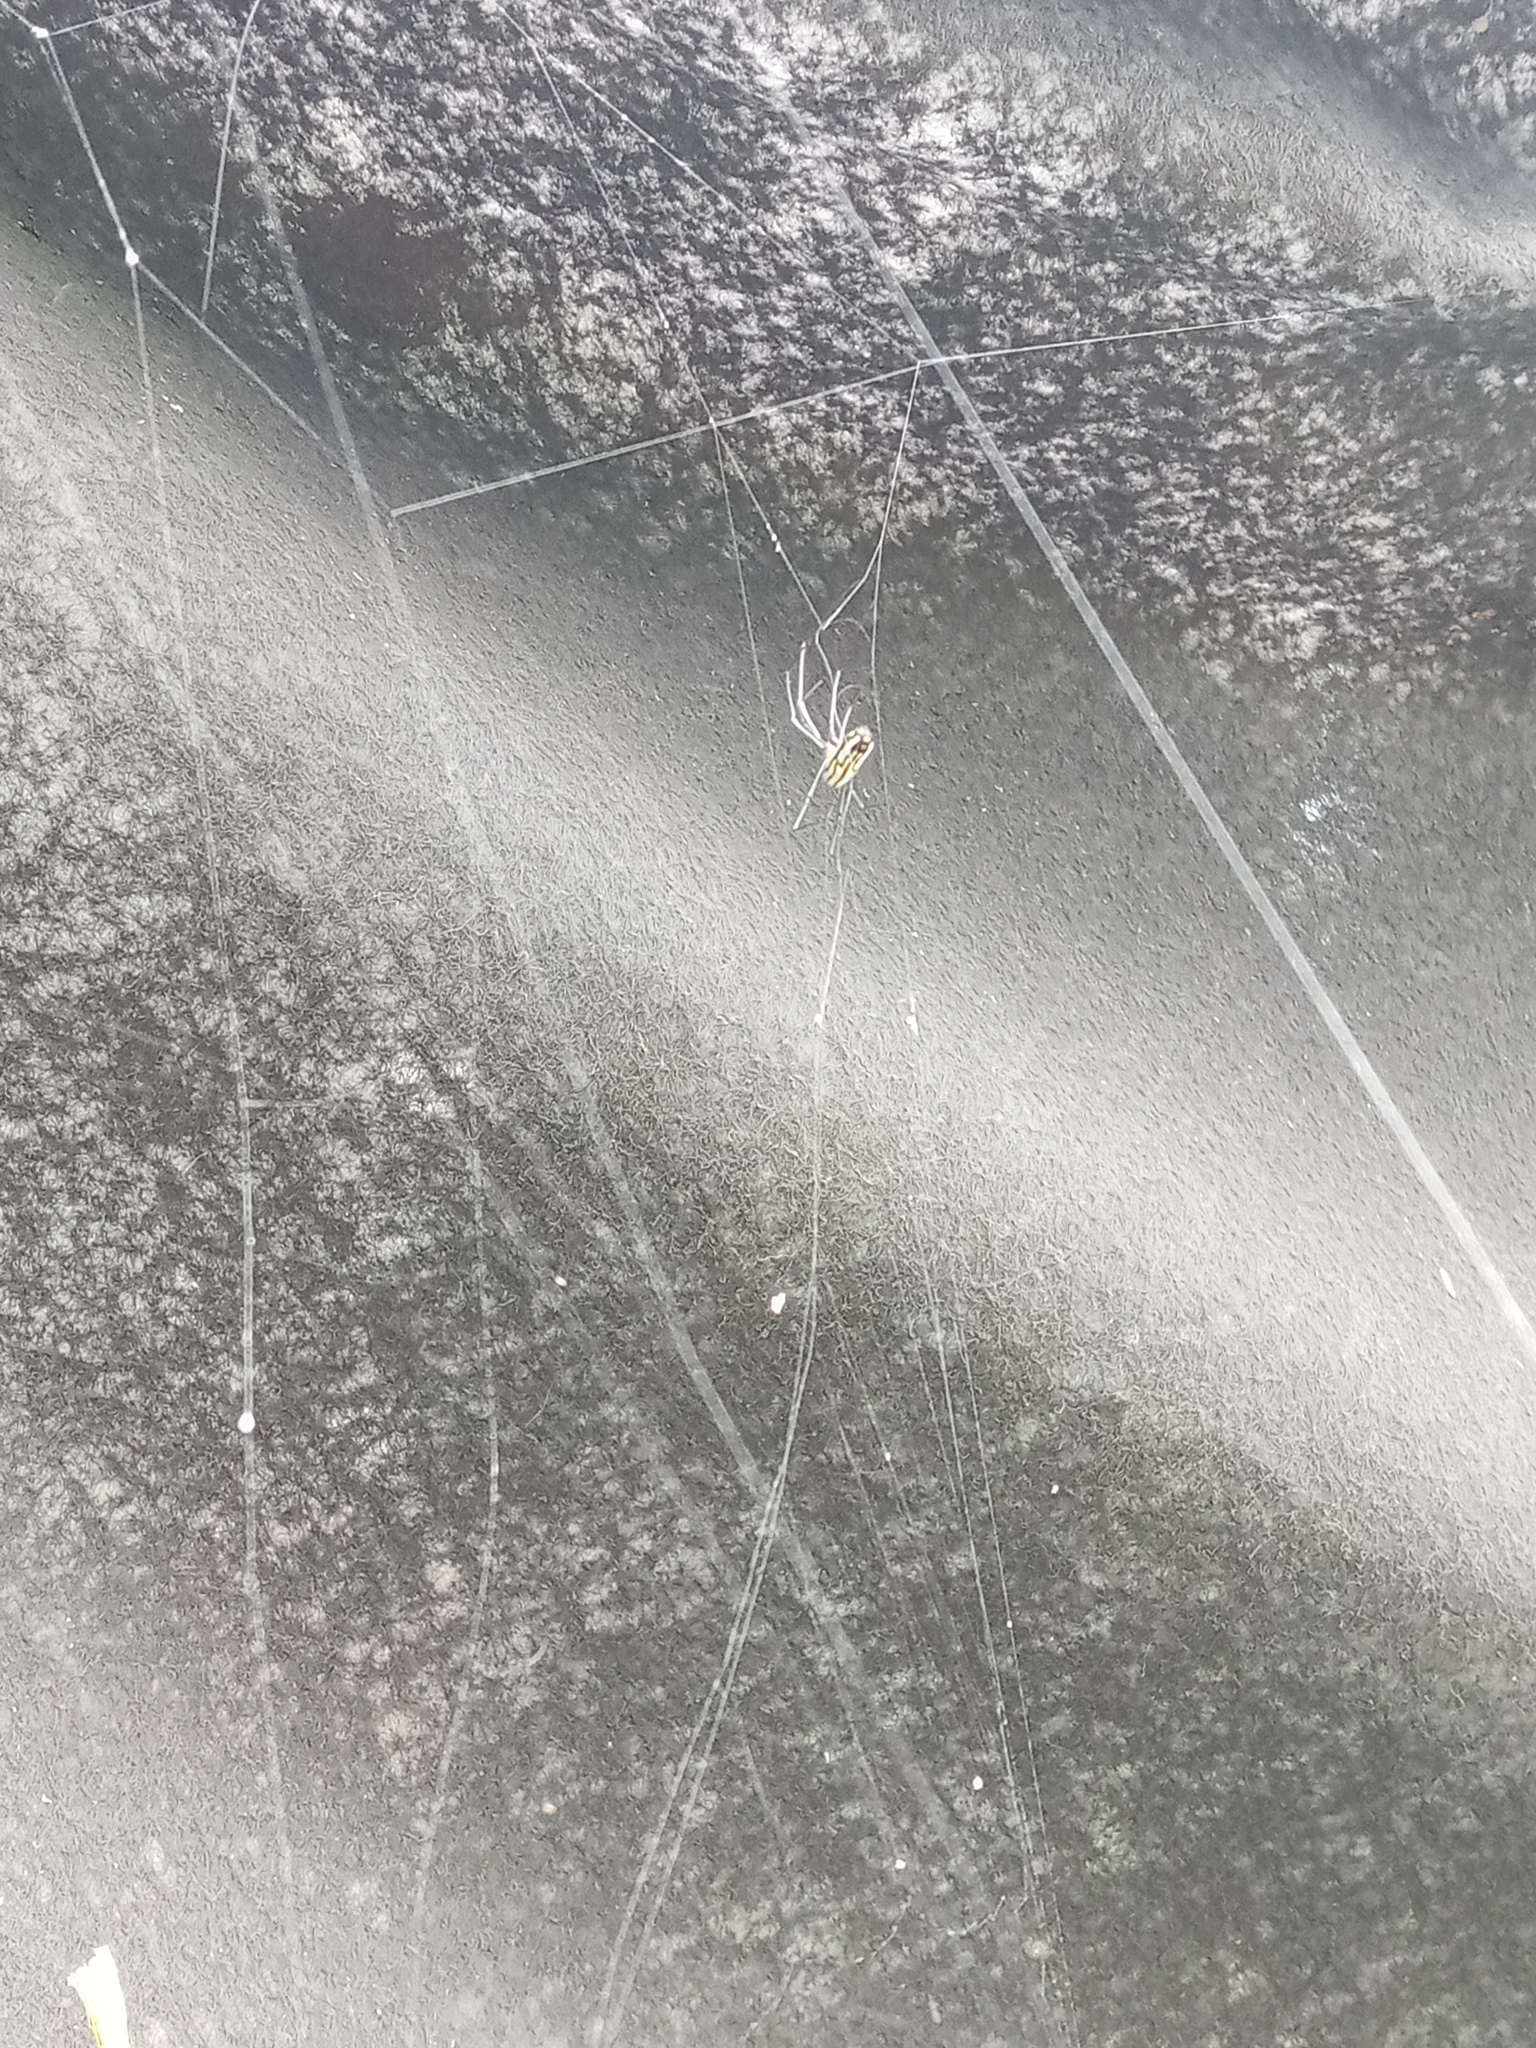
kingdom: Animalia
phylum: Arthropoda
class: Arachnida
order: Araneae
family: Tetragnathidae
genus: Leucauge
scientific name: Leucauge argyra
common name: Longjawed orb weavers
